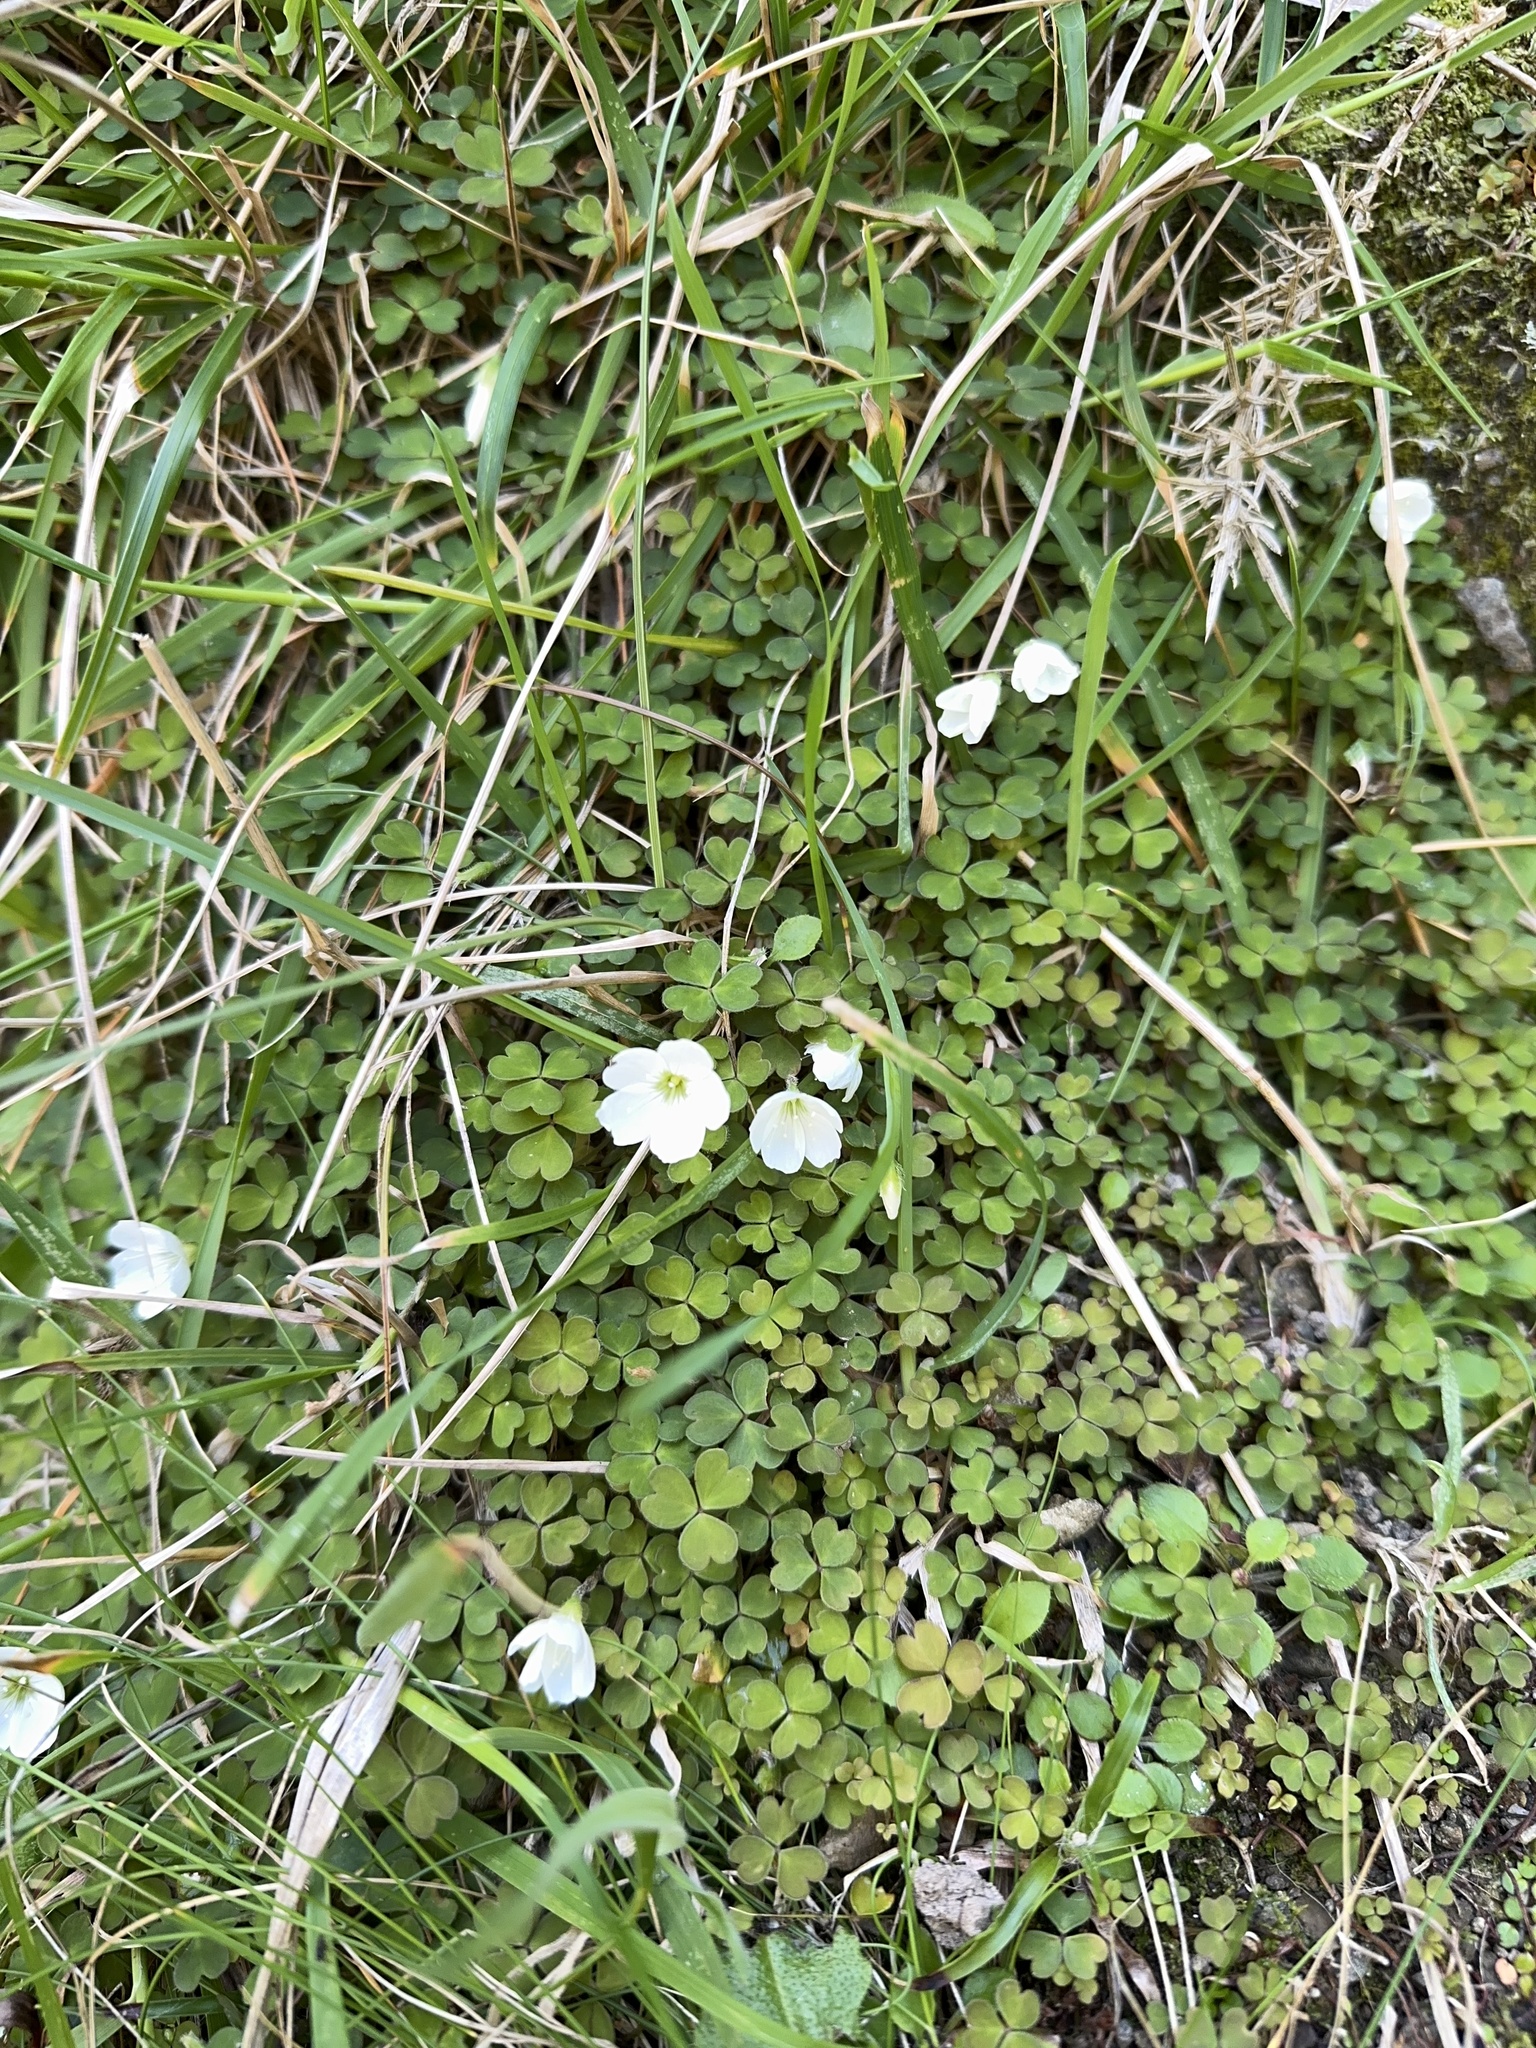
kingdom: Plantae
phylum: Tracheophyta
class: Magnoliopsida
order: Oxalidales
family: Oxalidaceae
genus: Oxalis
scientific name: Oxalis magellanica
